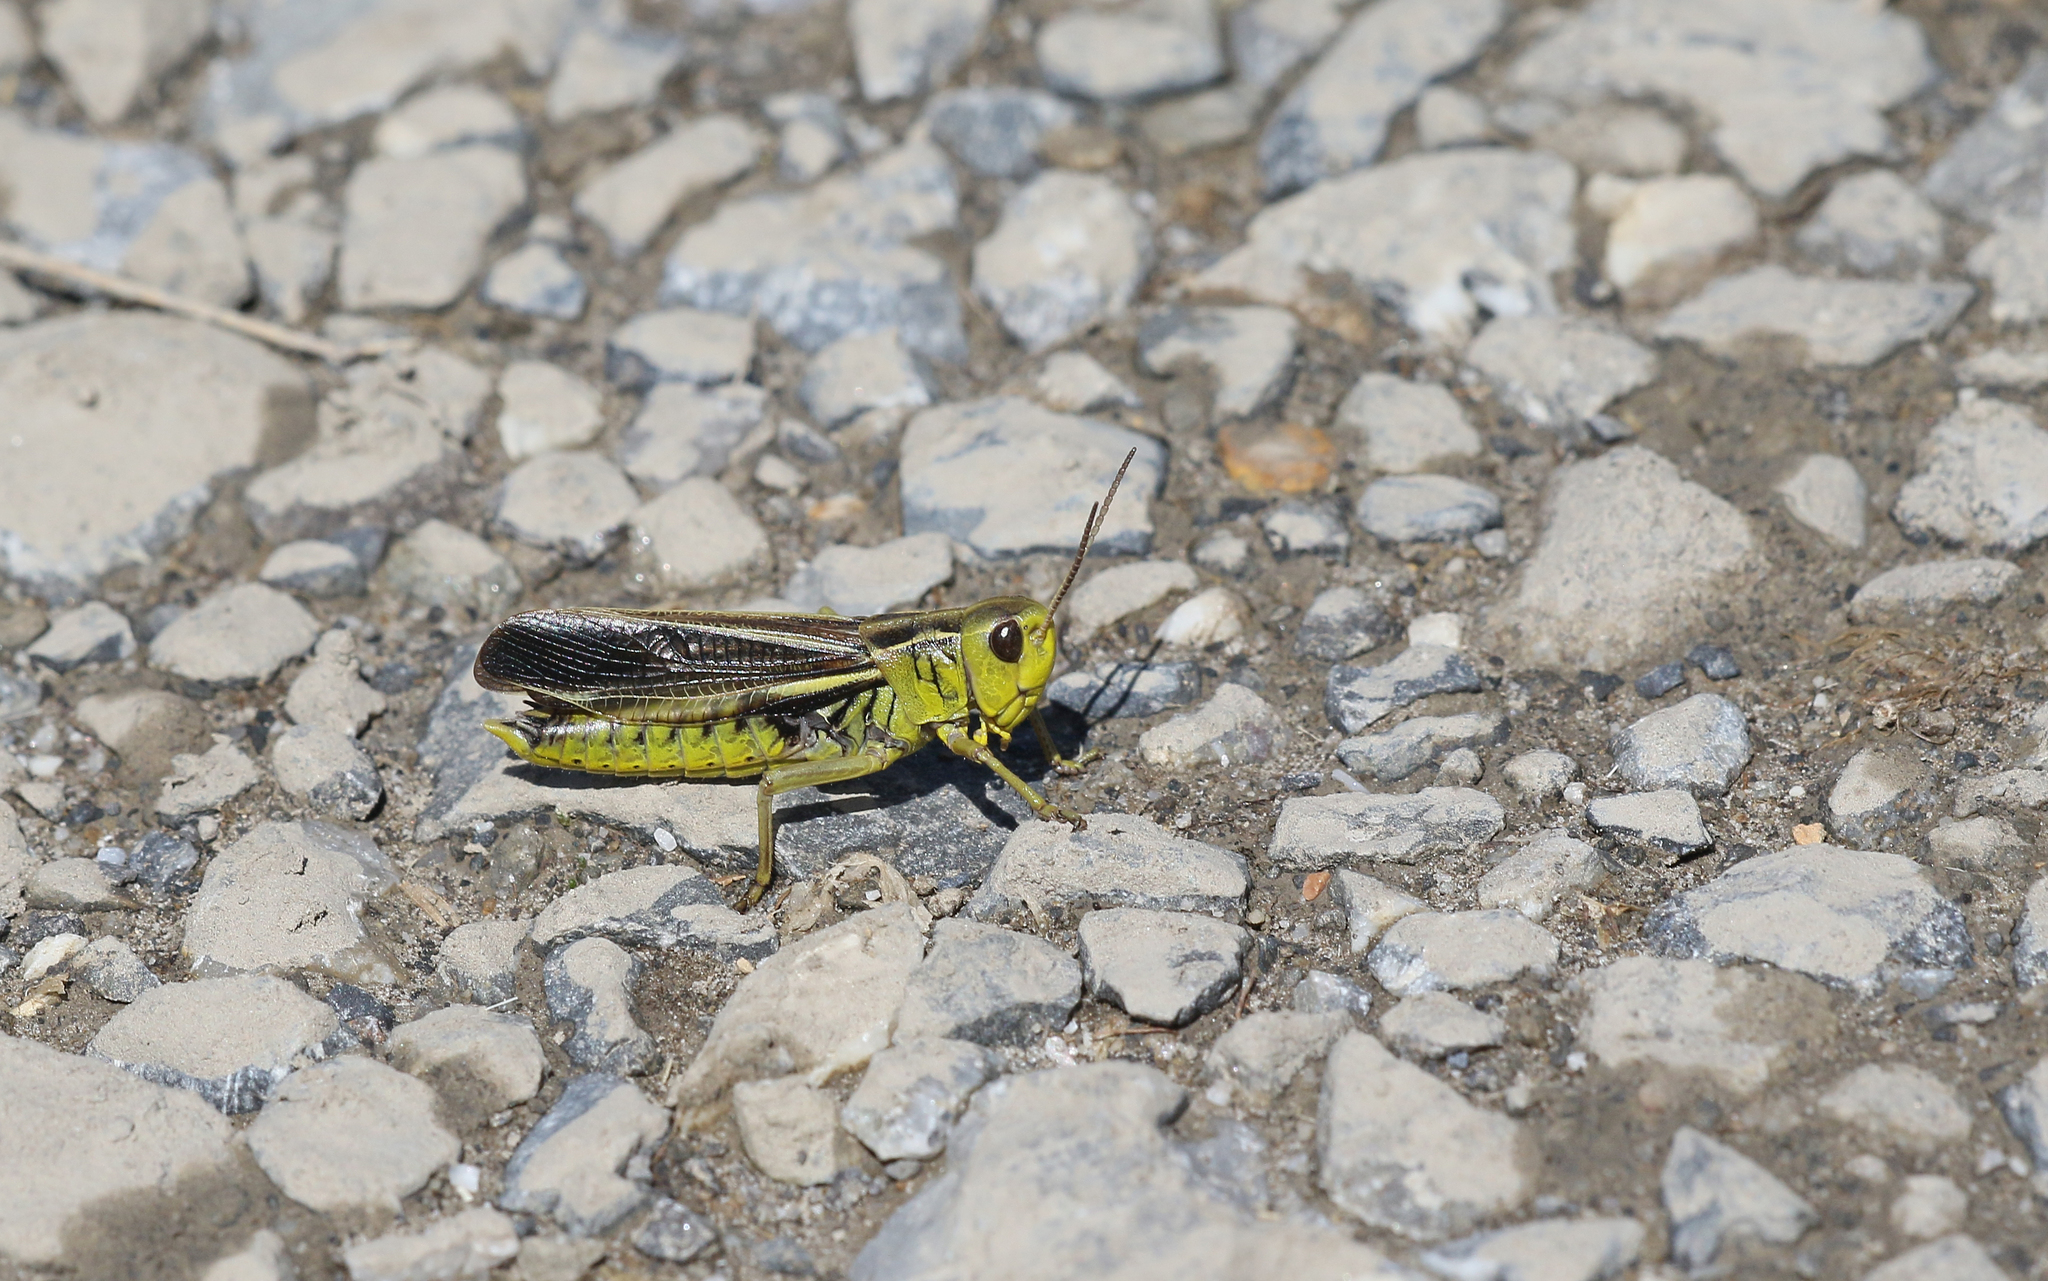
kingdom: Animalia
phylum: Arthropoda
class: Insecta
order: Orthoptera
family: Acrididae
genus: Arcyptera
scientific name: Arcyptera fusca
